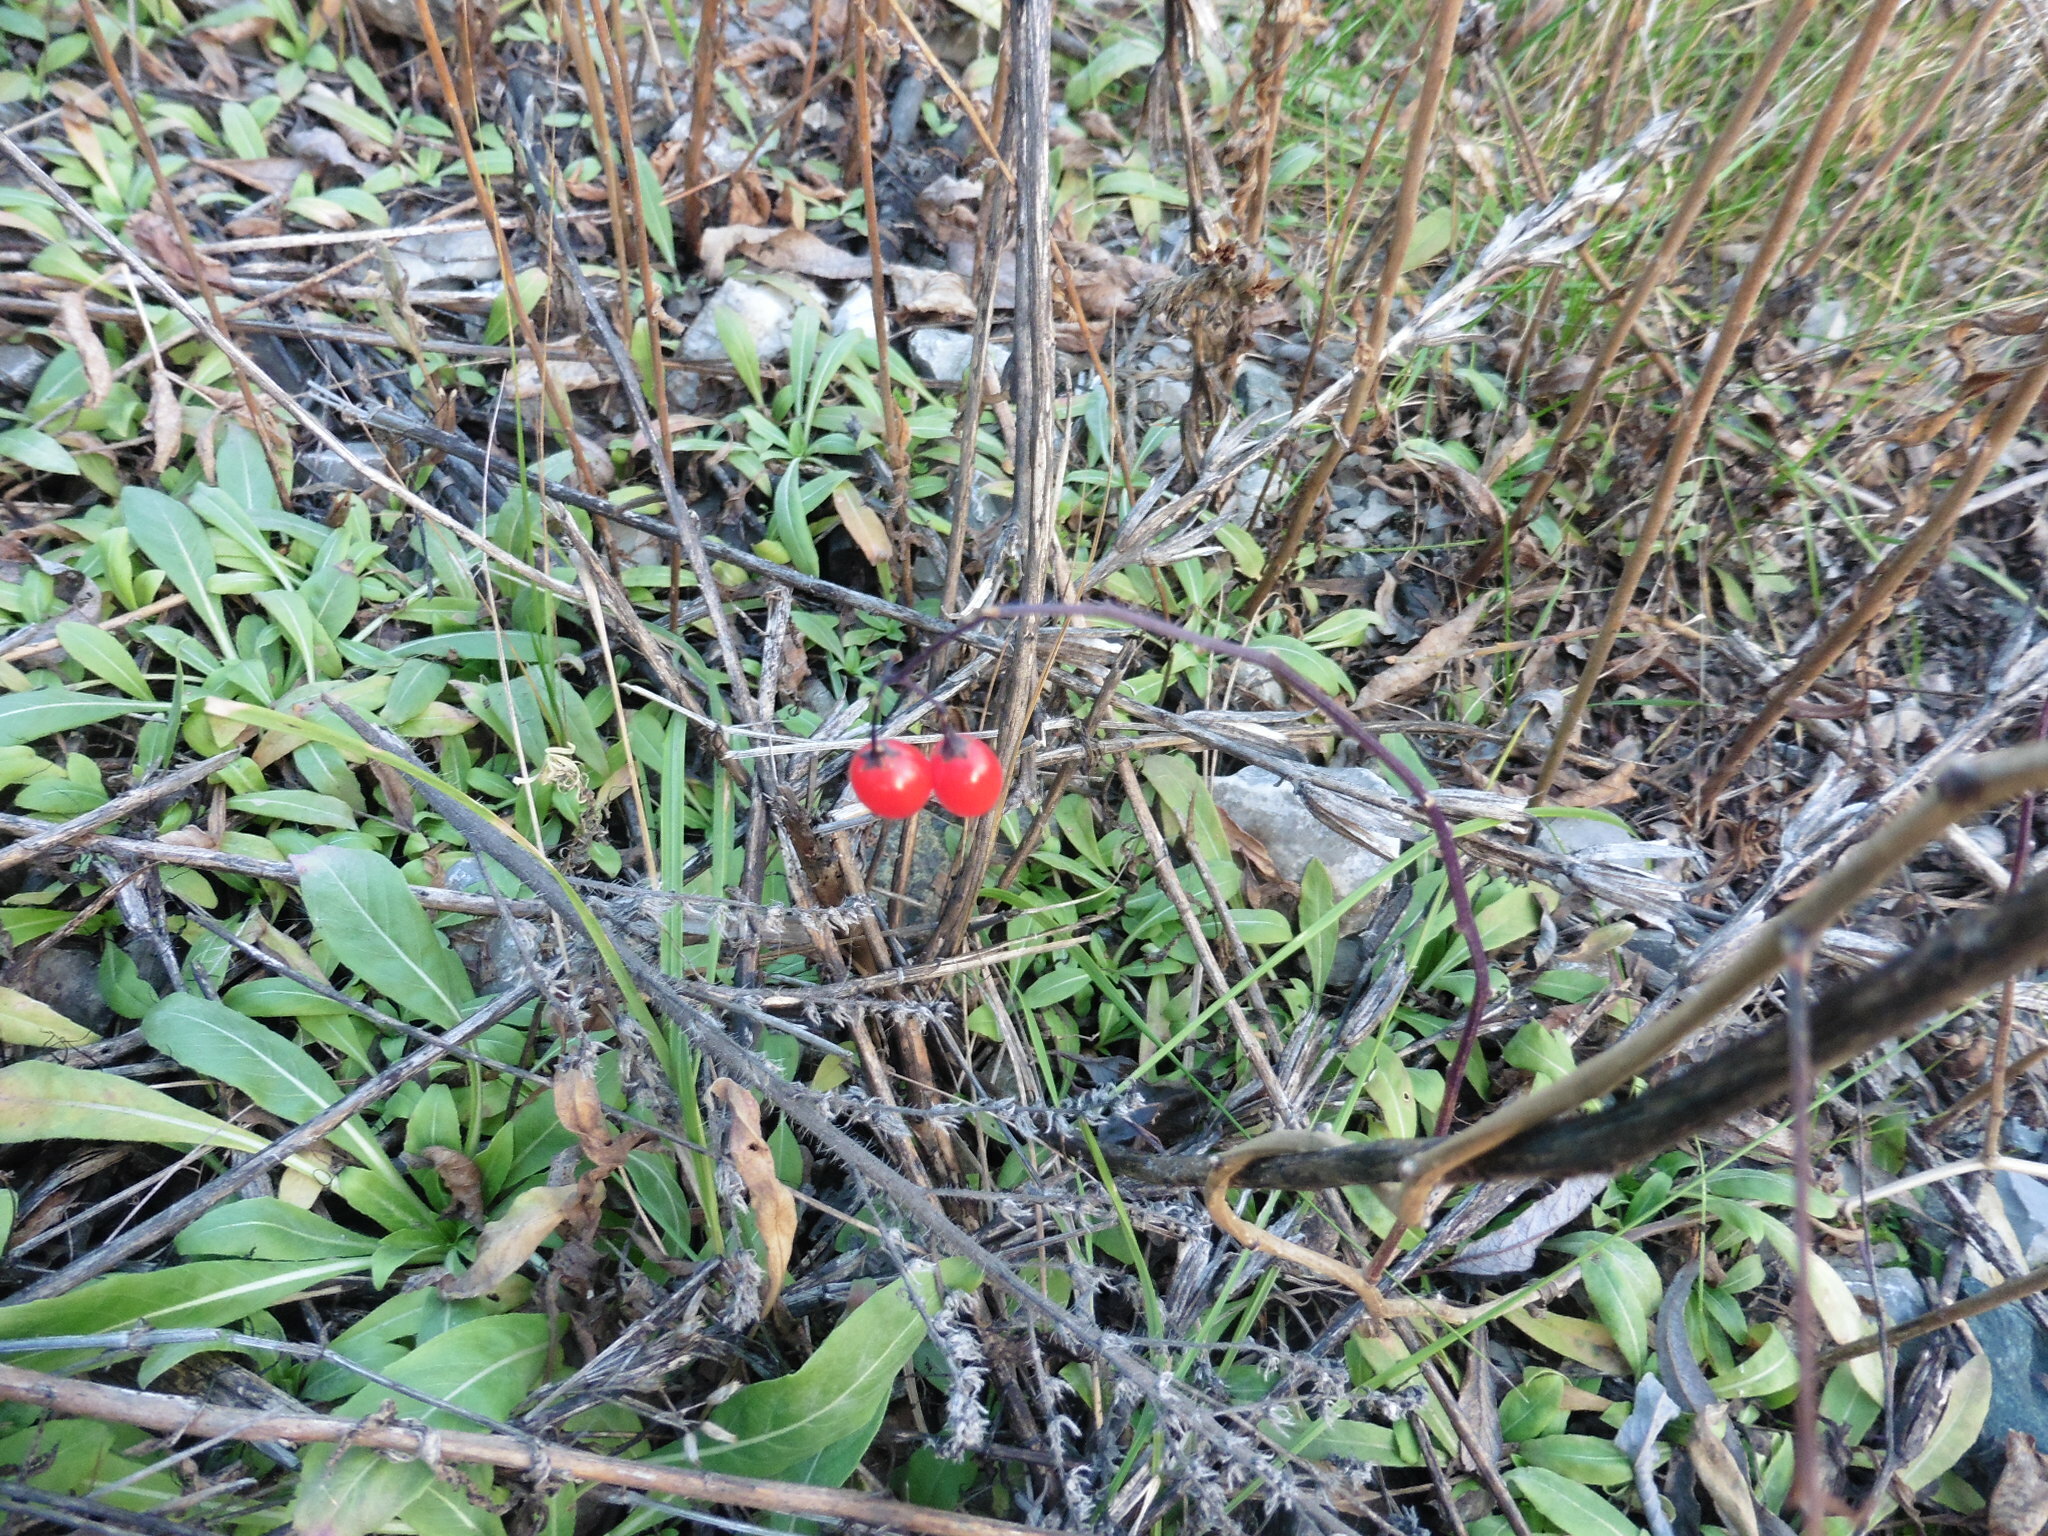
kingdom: Plantae
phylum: Tracheophyta
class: Magnoliopsida
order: Solanales
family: Solanaceae
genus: Solanum
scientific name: Solanum dulcamara
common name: Climbing nightshade
